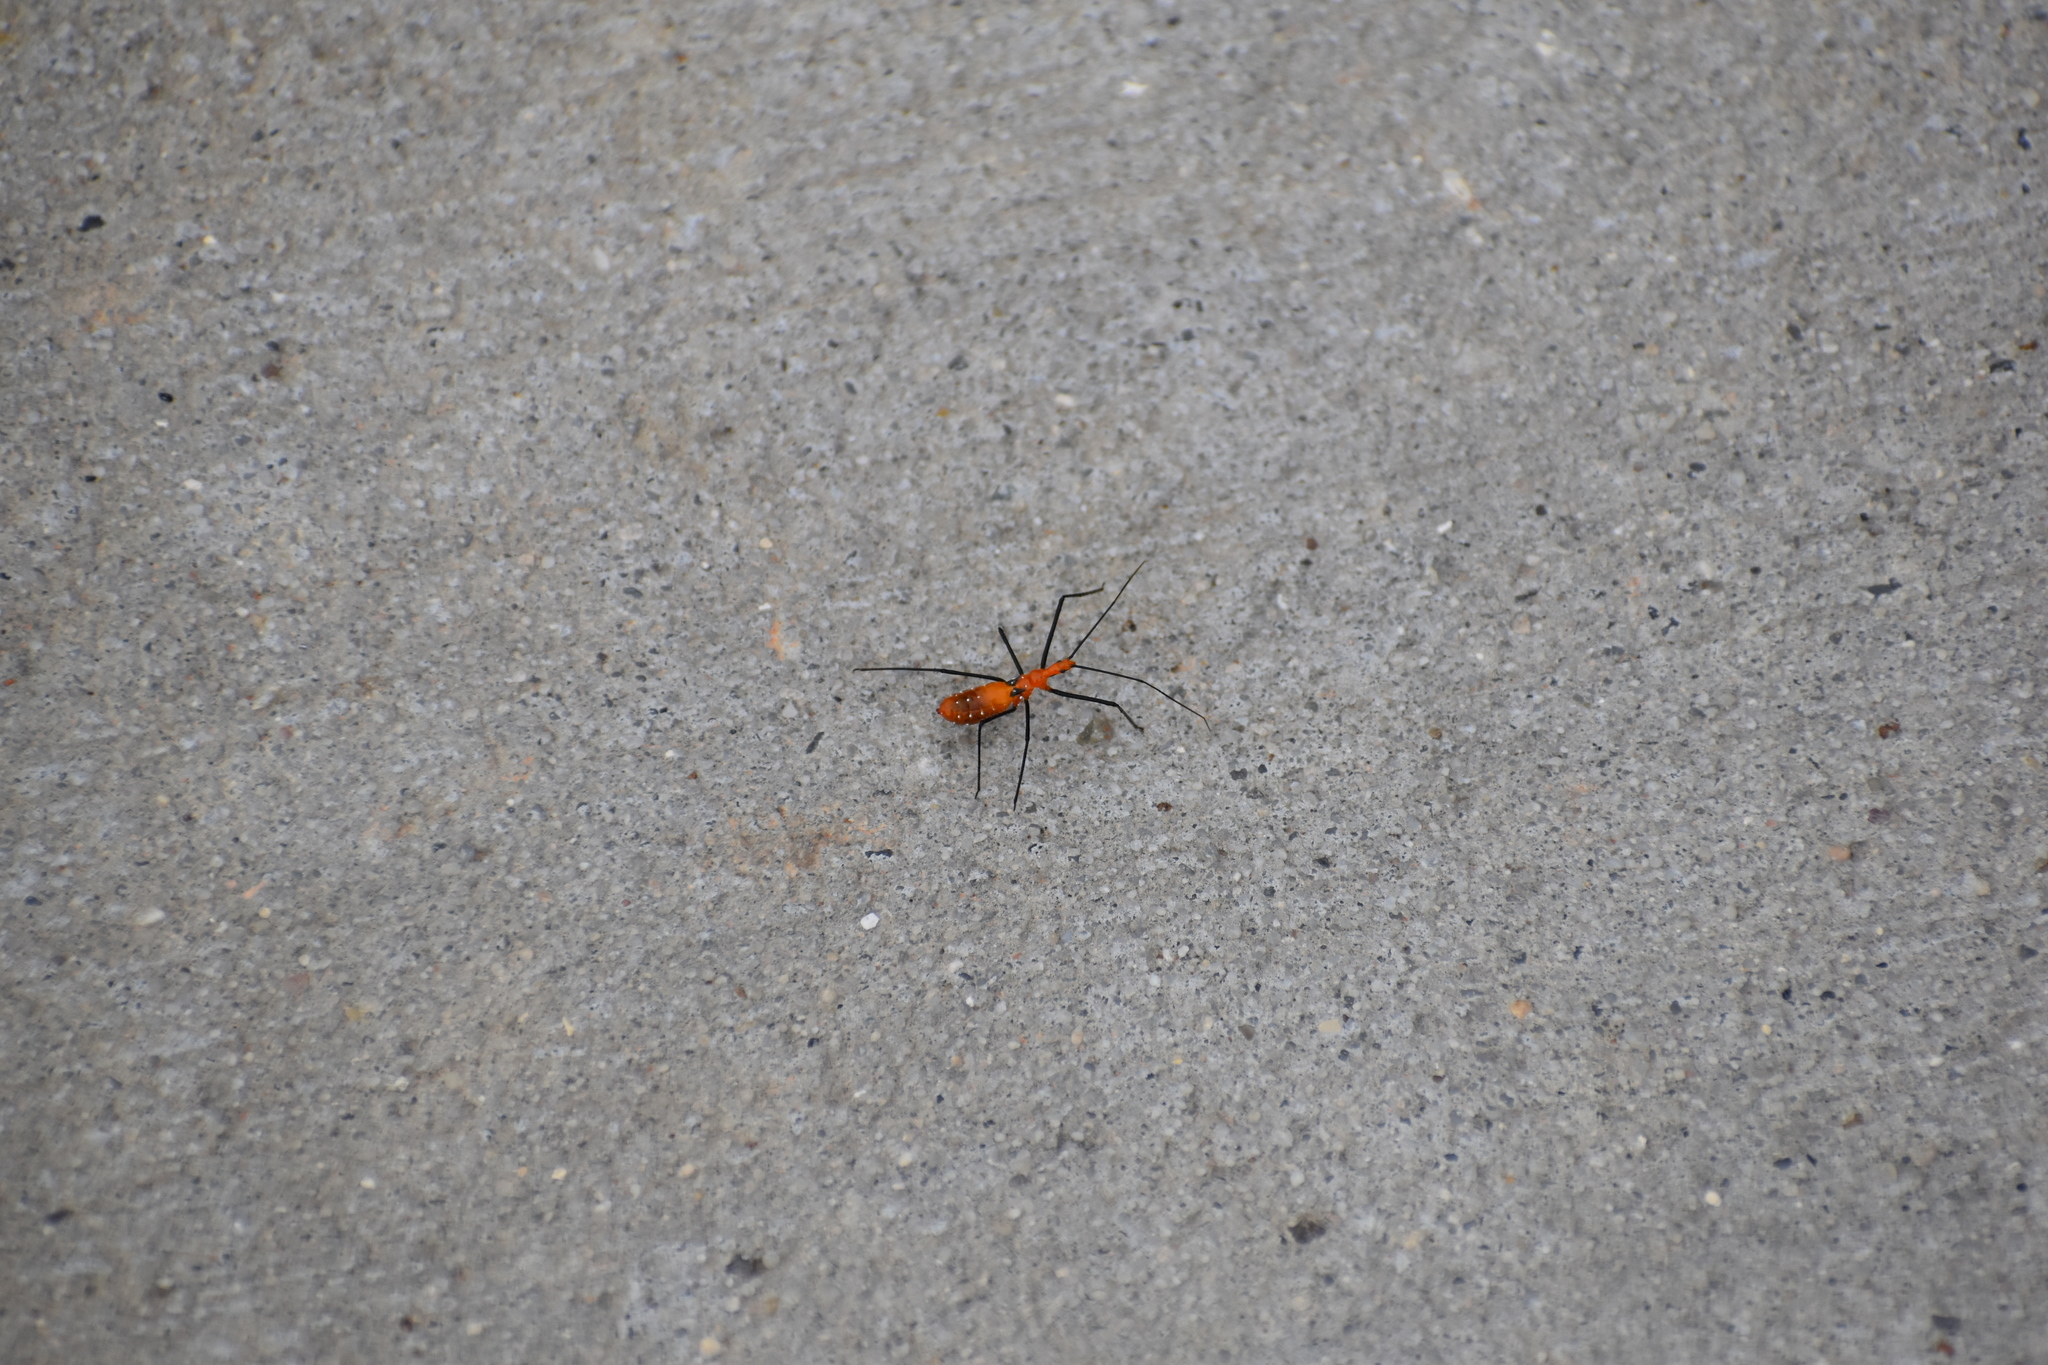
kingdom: Animalia
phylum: Arthropoda
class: Insecta
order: Hemiptera
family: Reduviidae
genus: Zelus
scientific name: Zelus longipes
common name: Milkweed assassin bug
